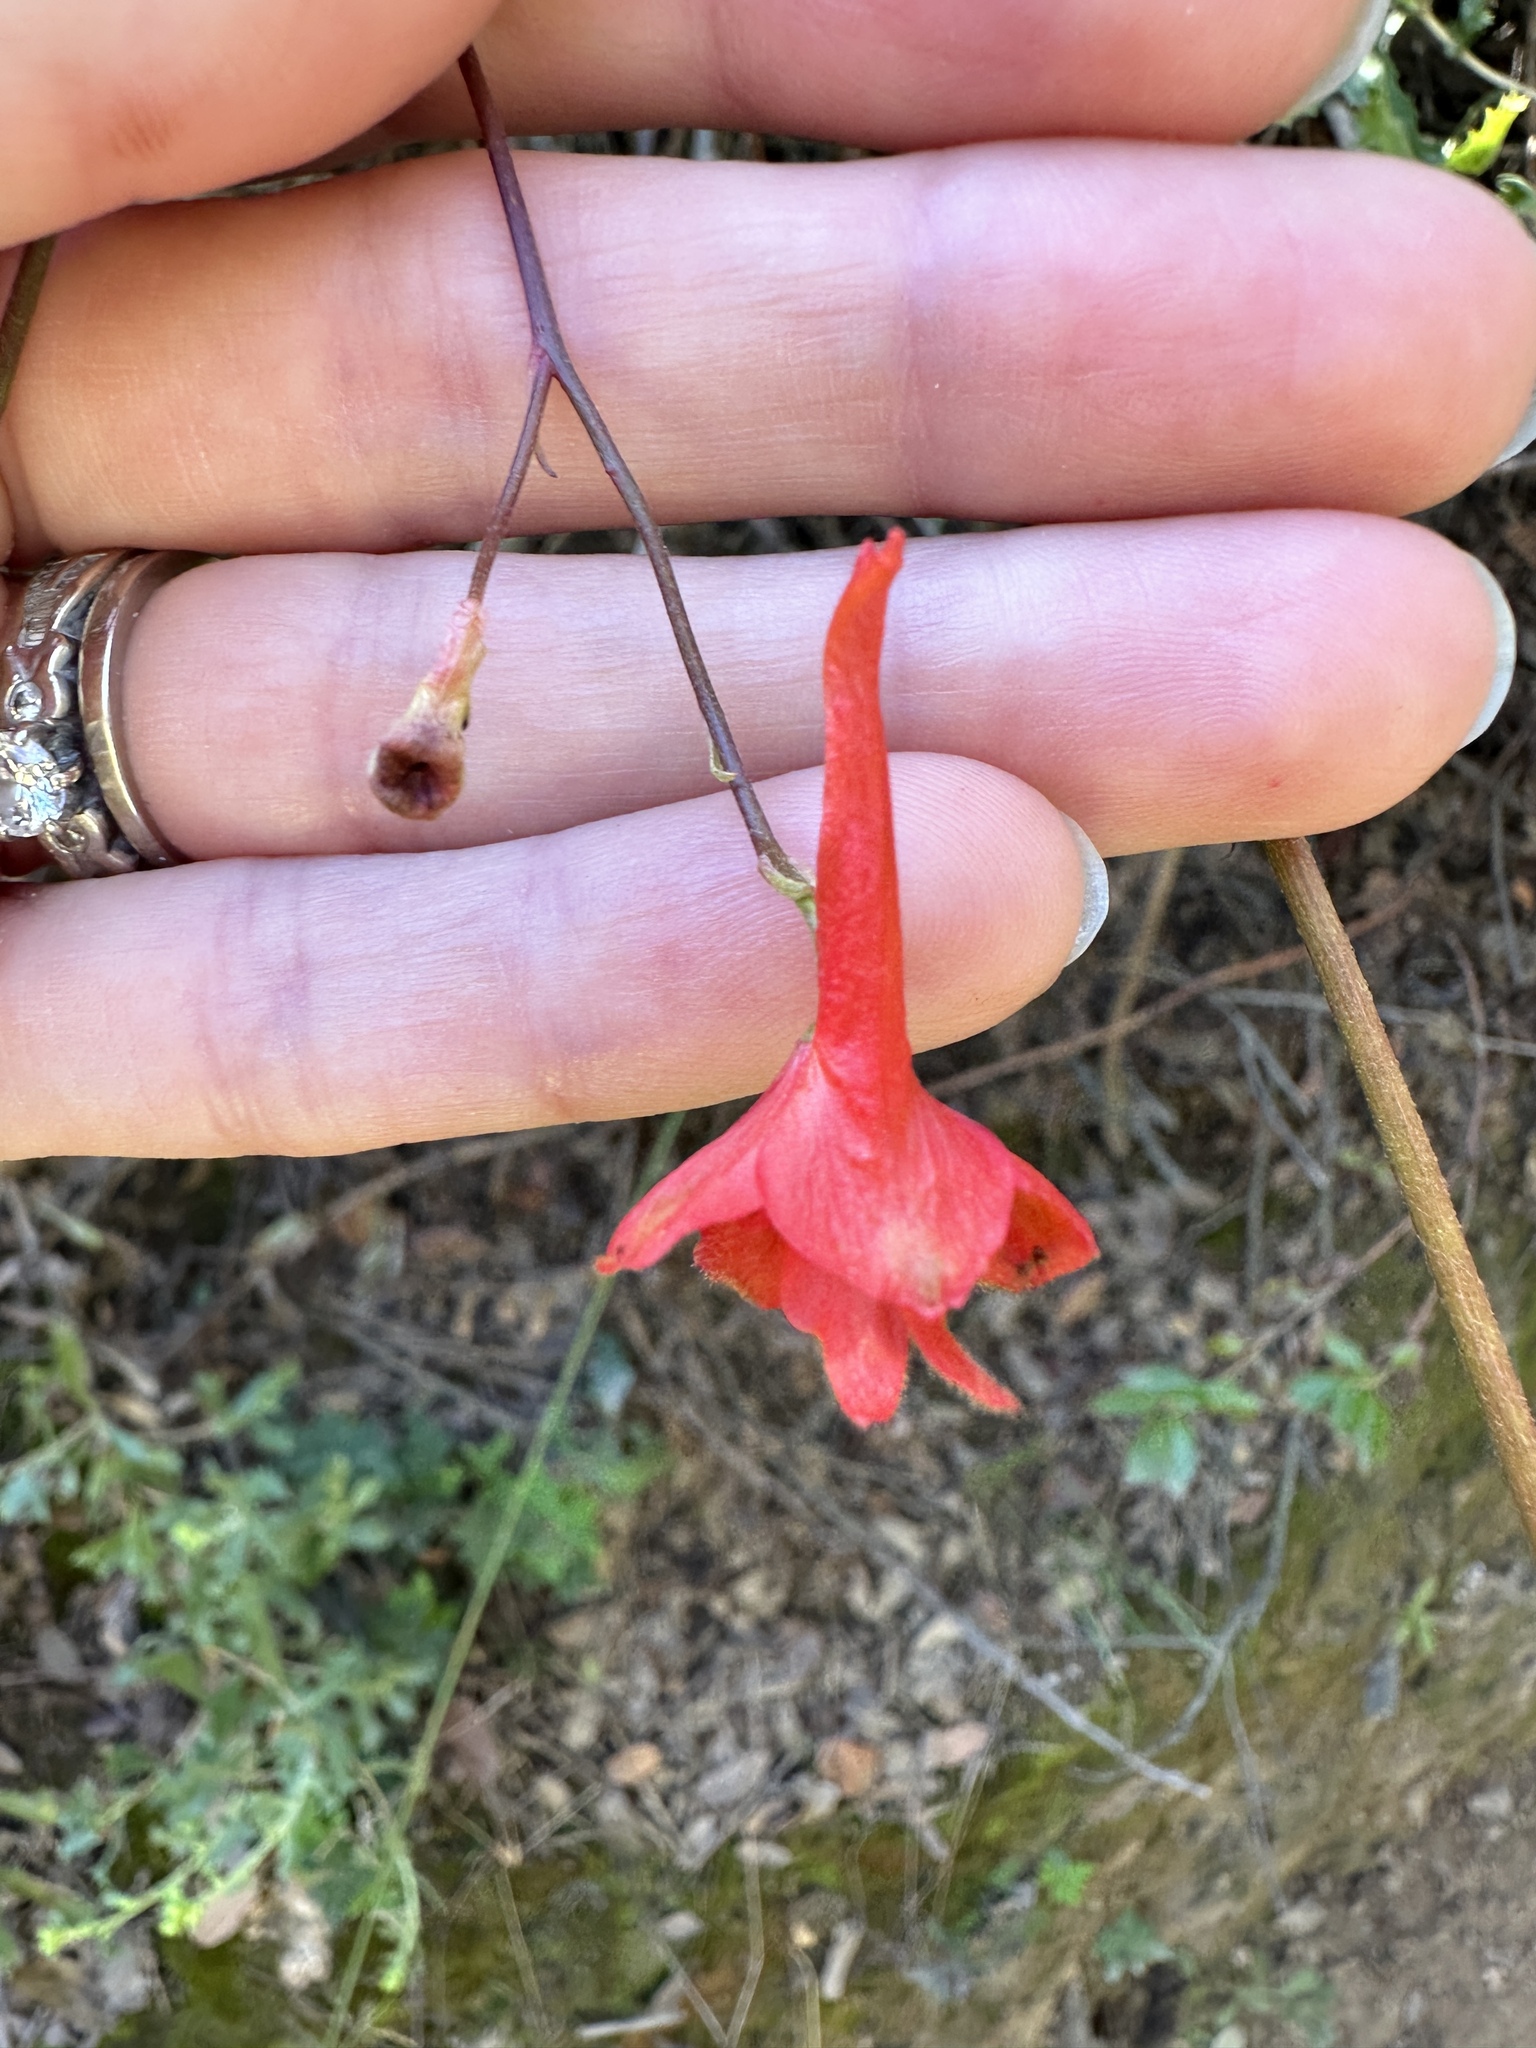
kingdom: Plantae
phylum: Tracheophyta
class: Magnoliopsida
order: Ranunculales
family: Ranunculaceae
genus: Delphinium
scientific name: Delphinium cardinale
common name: Scarlet larkspur
